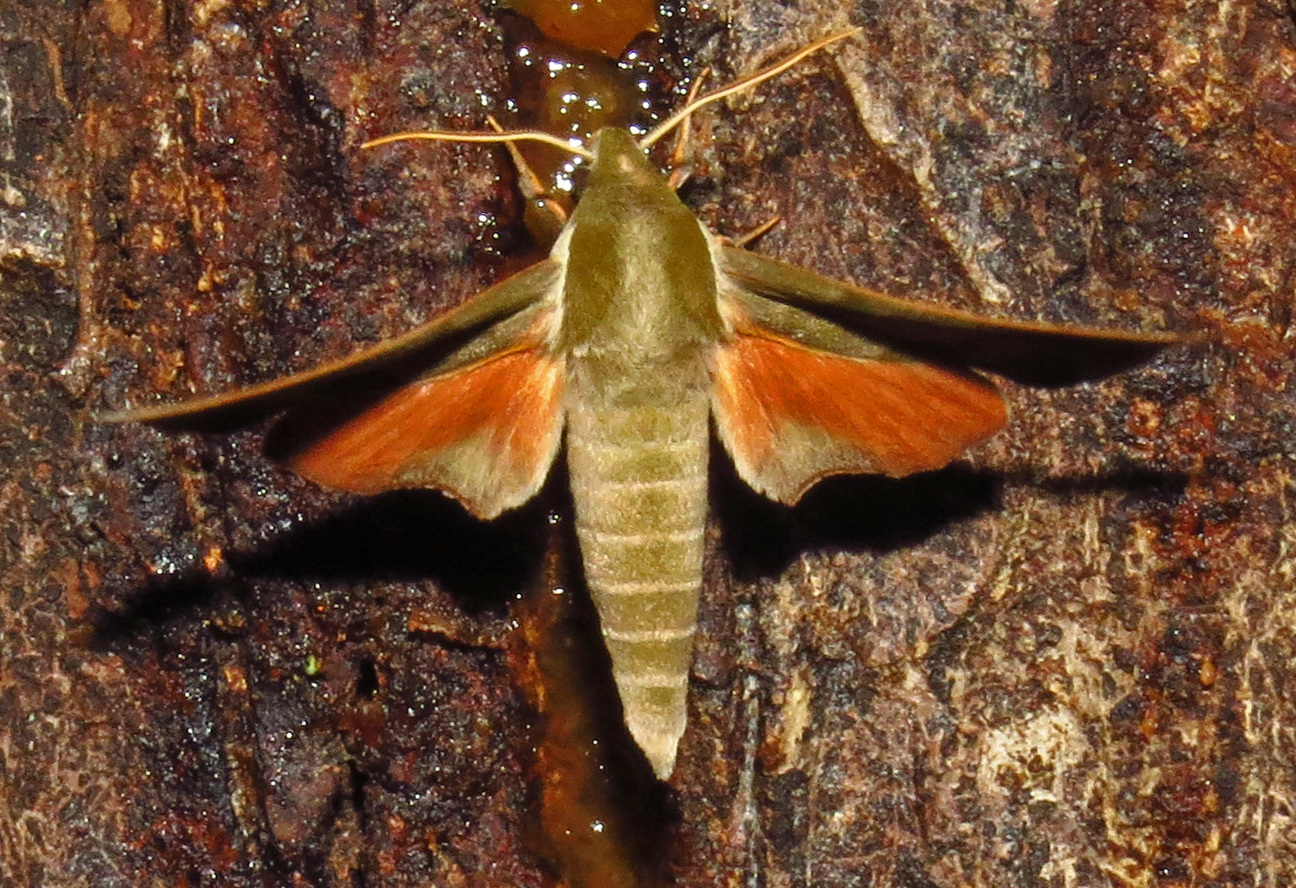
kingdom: Animalia
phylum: Arthropoda
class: Insecta
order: Lepidoptera
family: Sphingidae
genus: Darapsa
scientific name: Darapsa myron
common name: Hog sphinx
